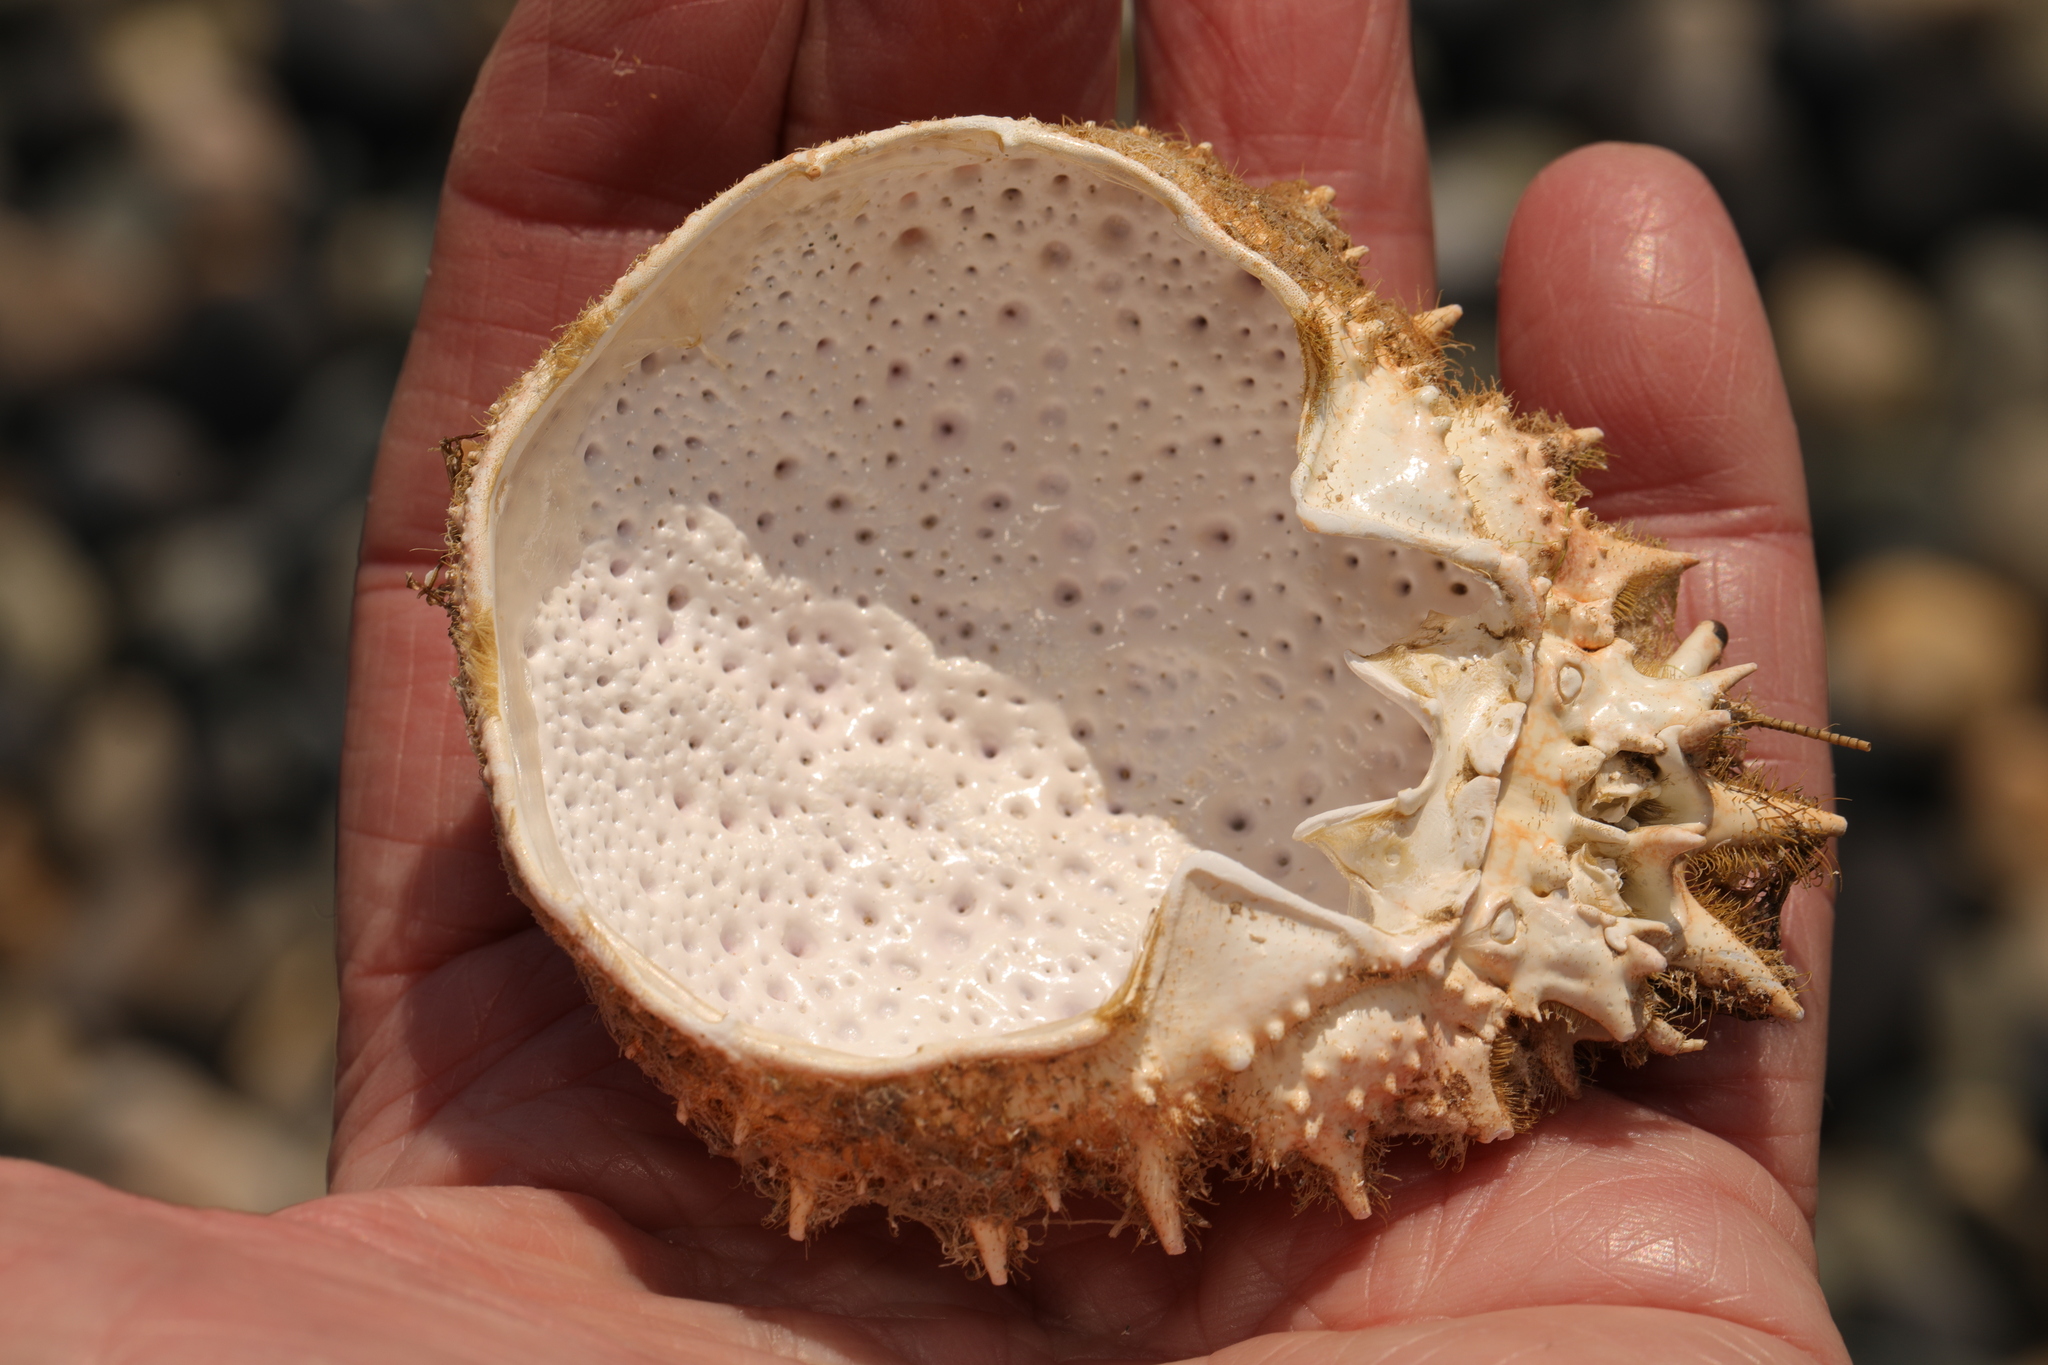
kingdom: Animalia
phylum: Arthropoda
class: Malacostraca
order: Decapoda
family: Majidae
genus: Maja
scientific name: Maja brachydactyla
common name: Common spider crab
